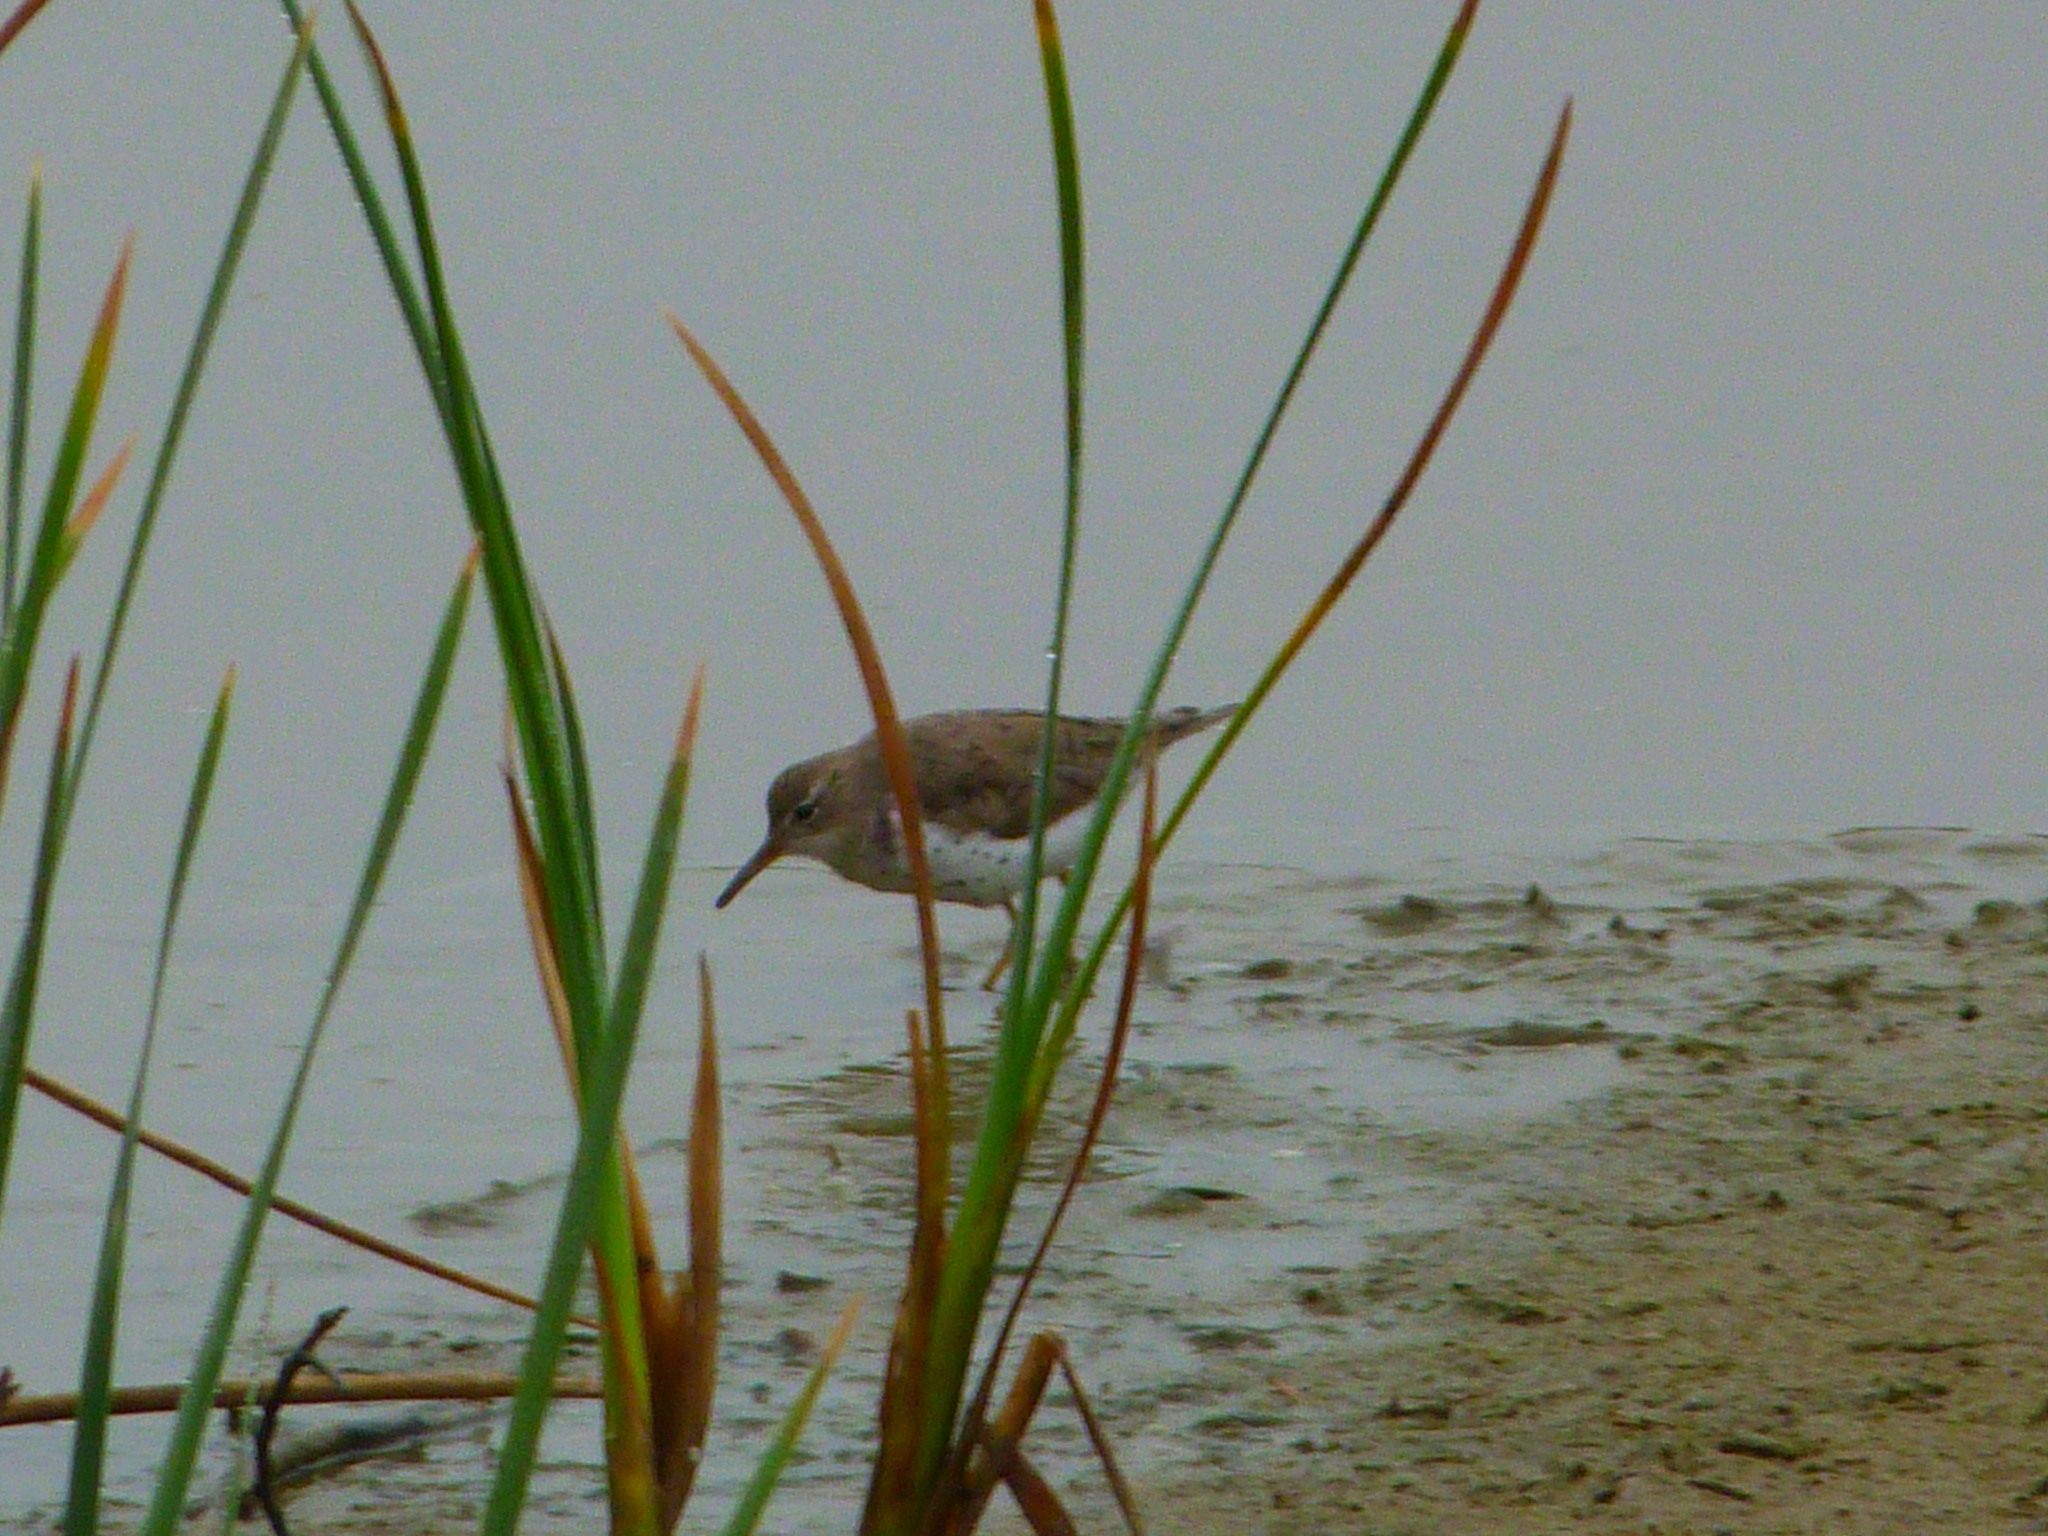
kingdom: Animalia
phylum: Chordata
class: Aves
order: Charadriiformes
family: Scolopacidae
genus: Actitis
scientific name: Actitis macularius
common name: Spotted sandpiper
